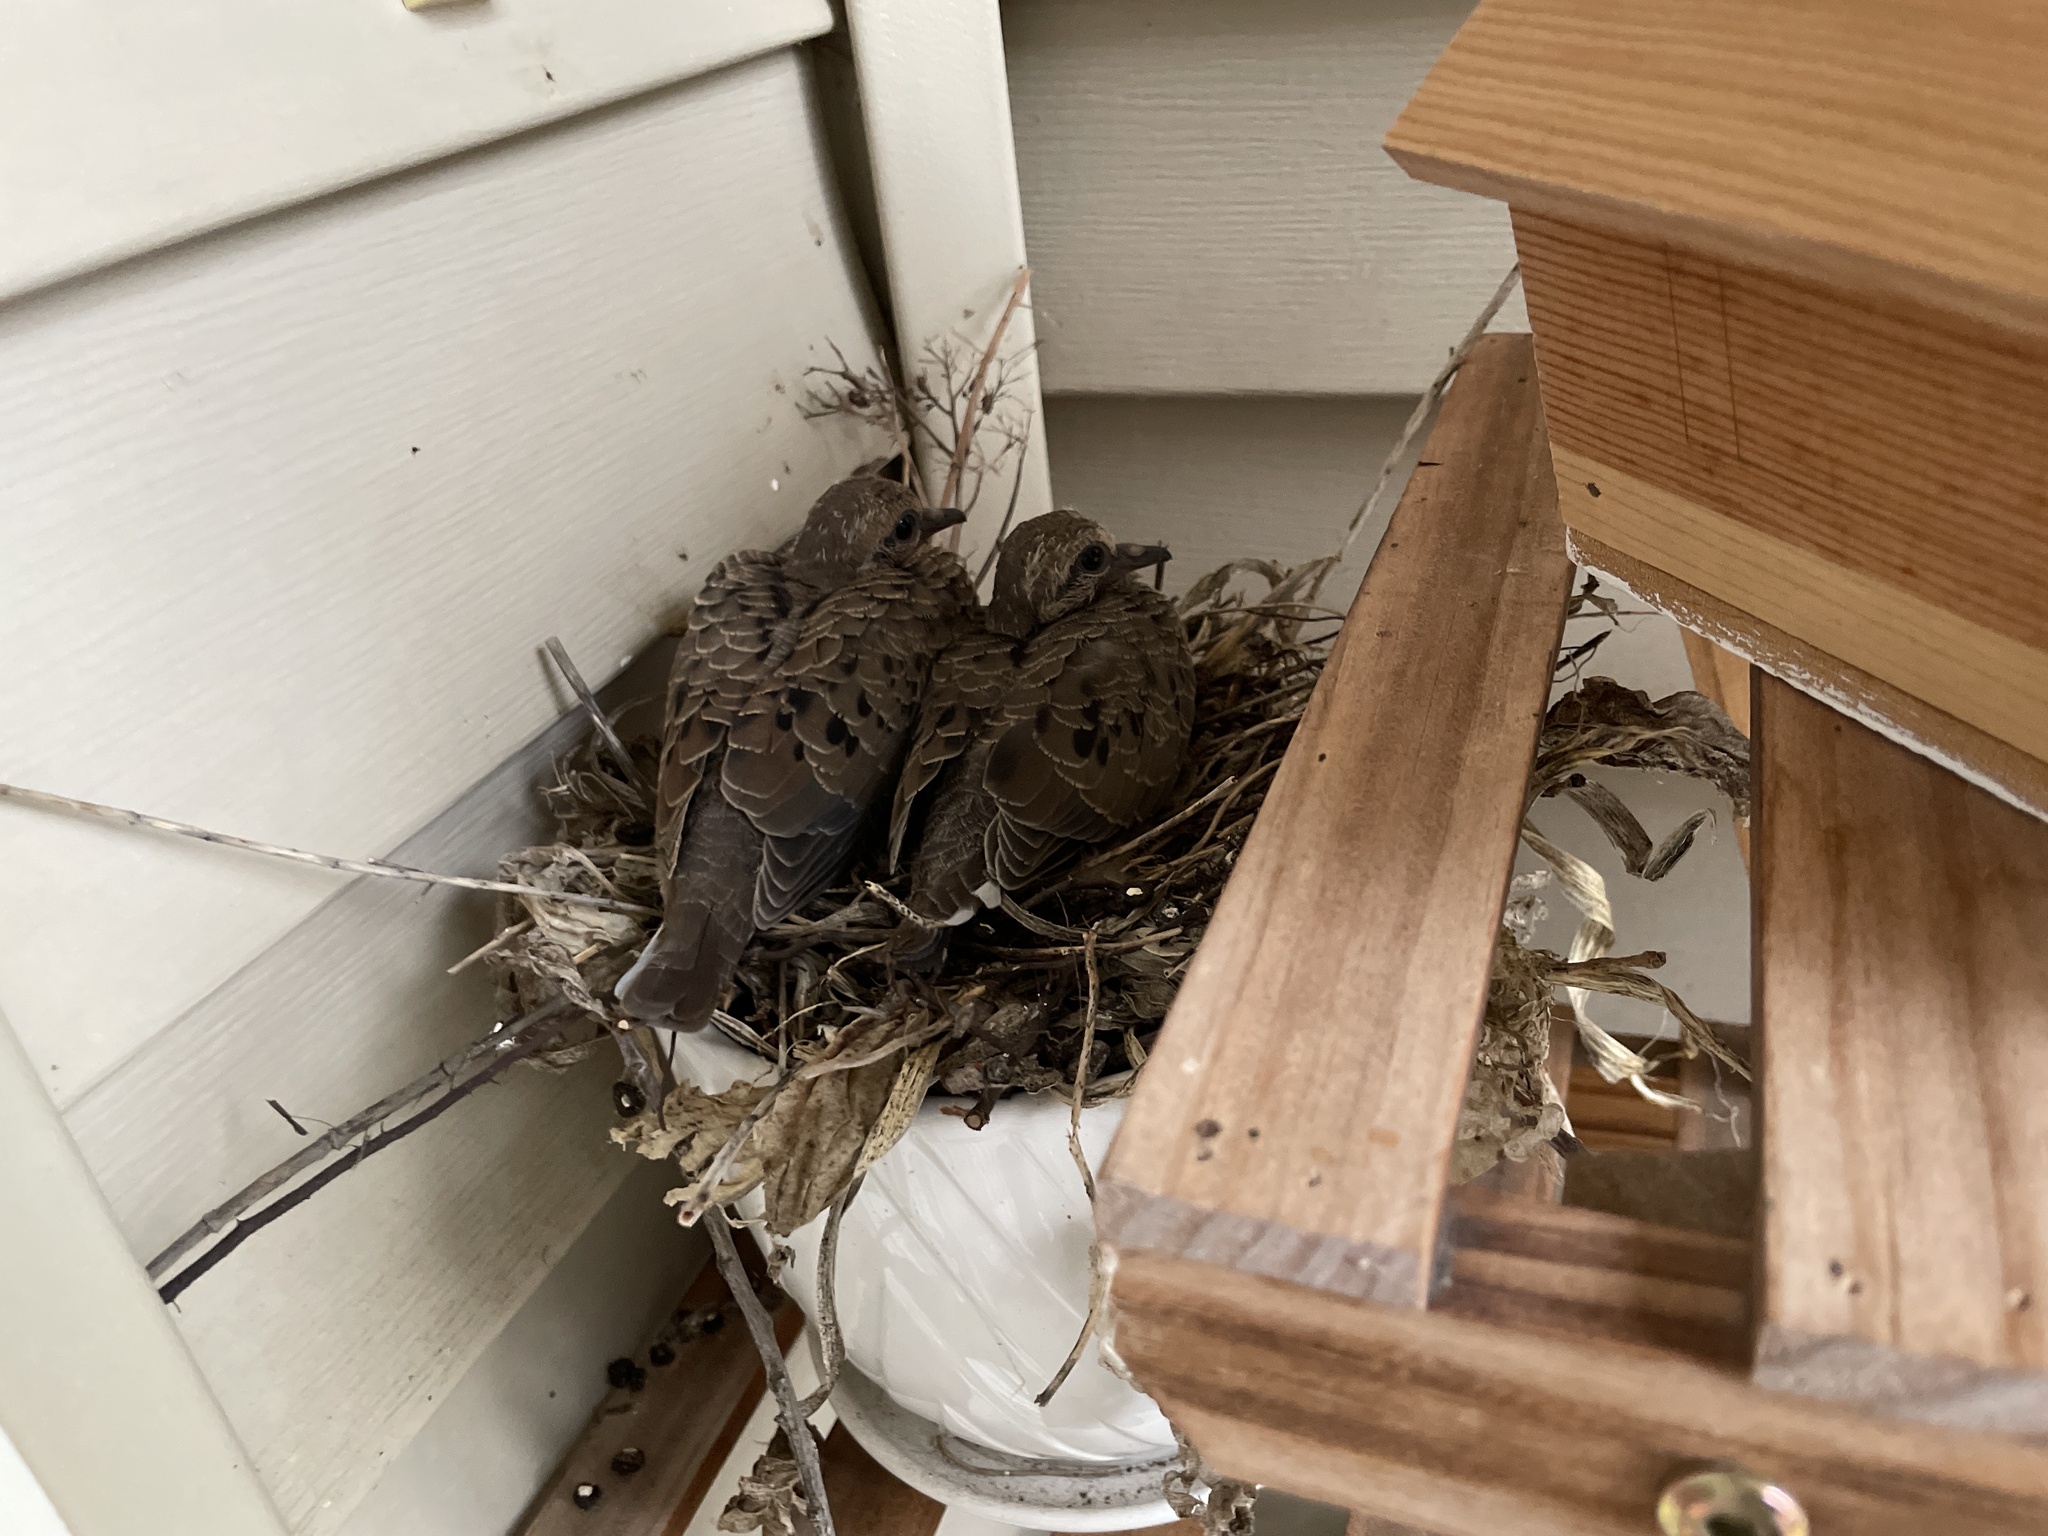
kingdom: Animalia
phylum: Chordata
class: Aves
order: Columbiformes
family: Columbidae
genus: Zenaida
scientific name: Zenaida macroura
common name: Mourning dove
